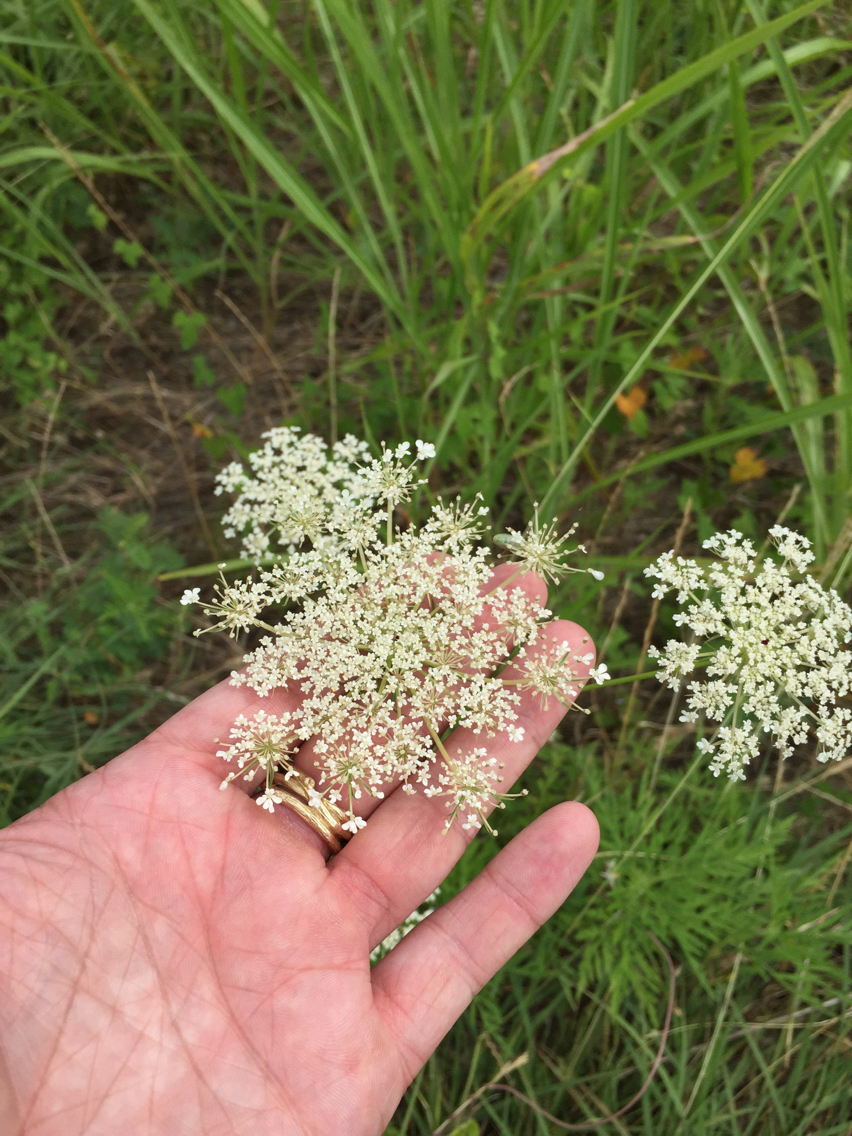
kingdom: Plantae
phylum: Tracheophyta
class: Magnoliopsida
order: Apiales
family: Apiaceae
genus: Daucus
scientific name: Daucus carota
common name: Wild carrot
